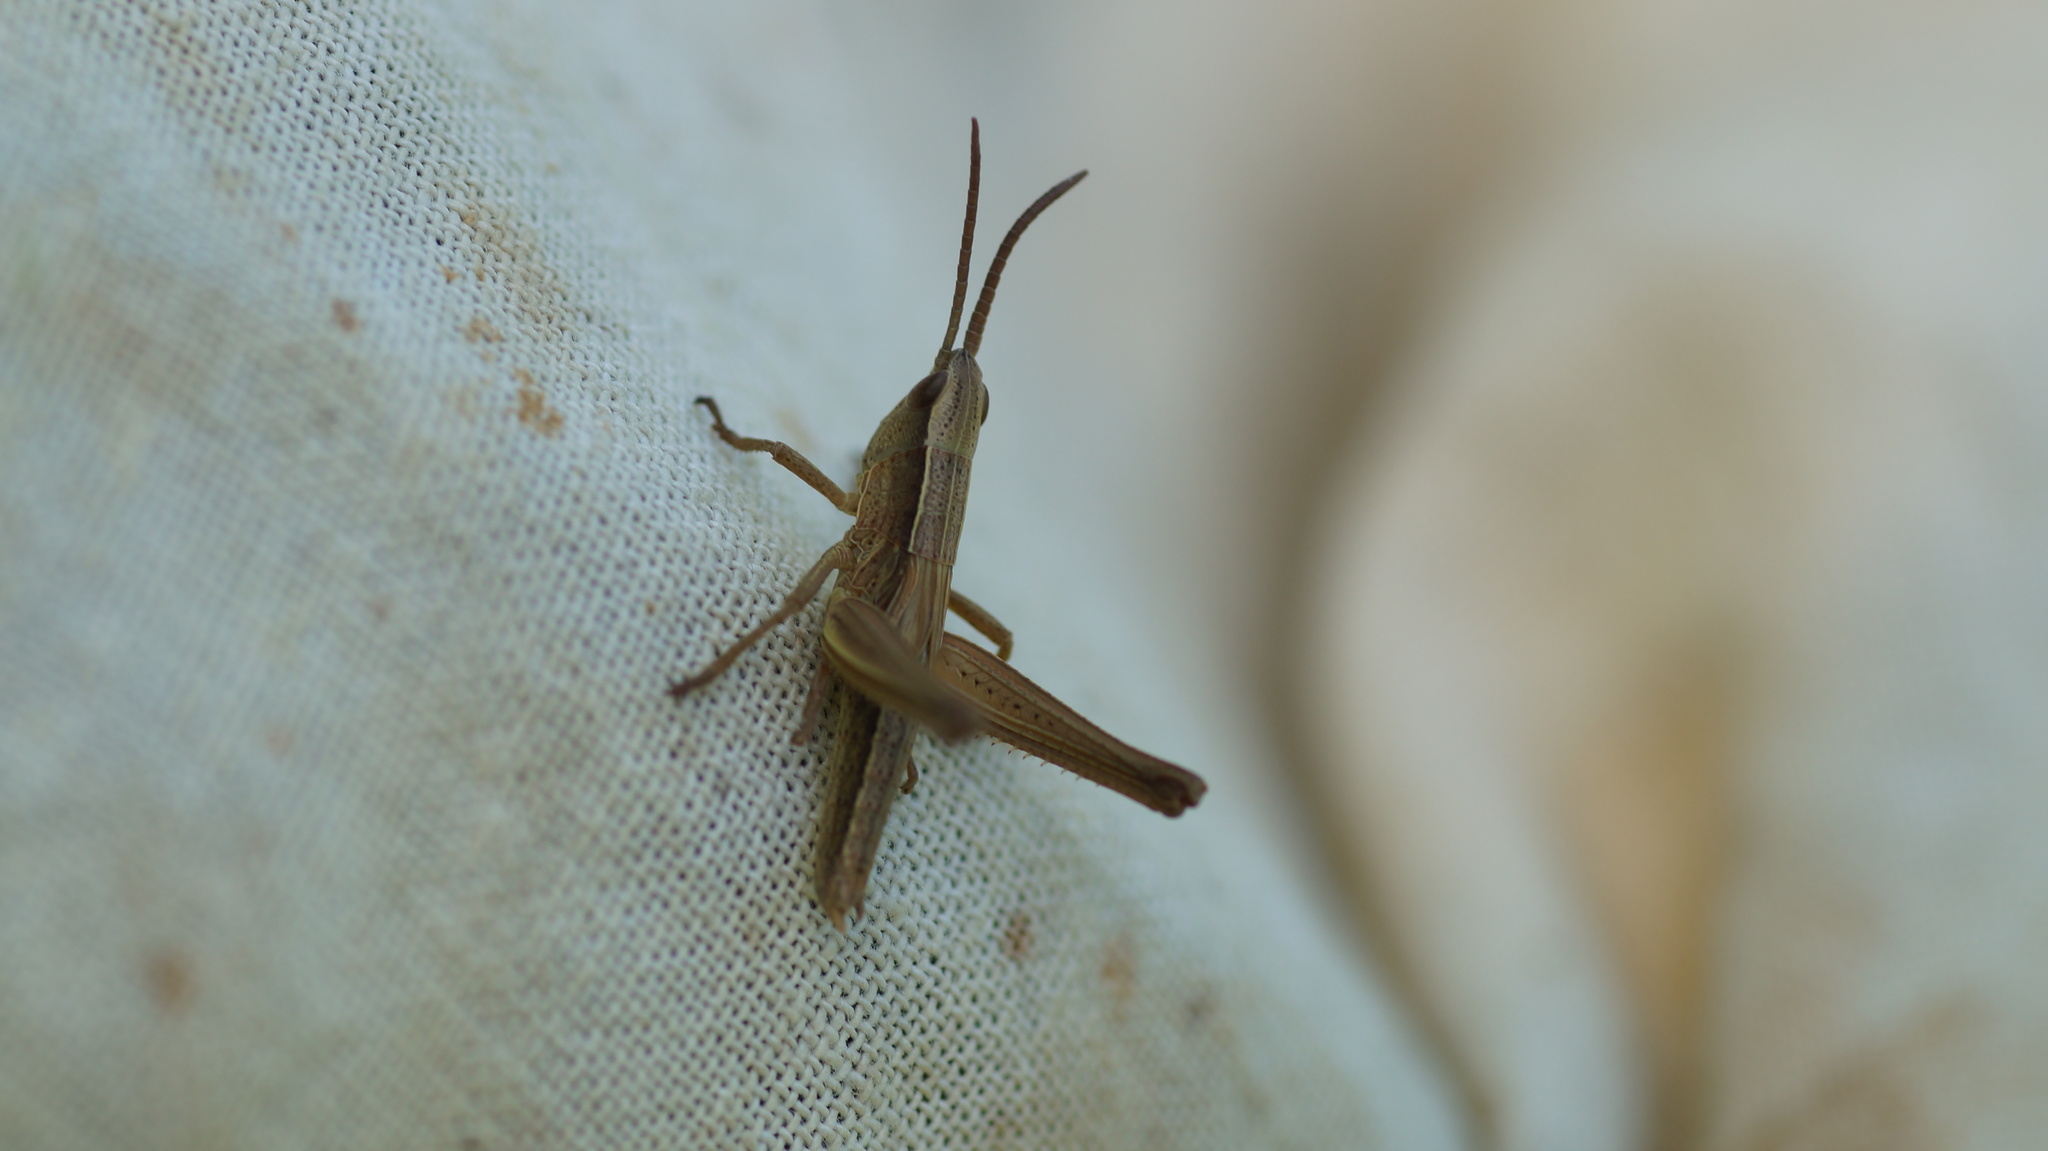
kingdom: Animalia
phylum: Arthropoda
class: Insecta
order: Orthoptera
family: Acrididae
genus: Chrysochraon
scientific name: Chrysochraon dispar
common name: Large gold grasshopper
